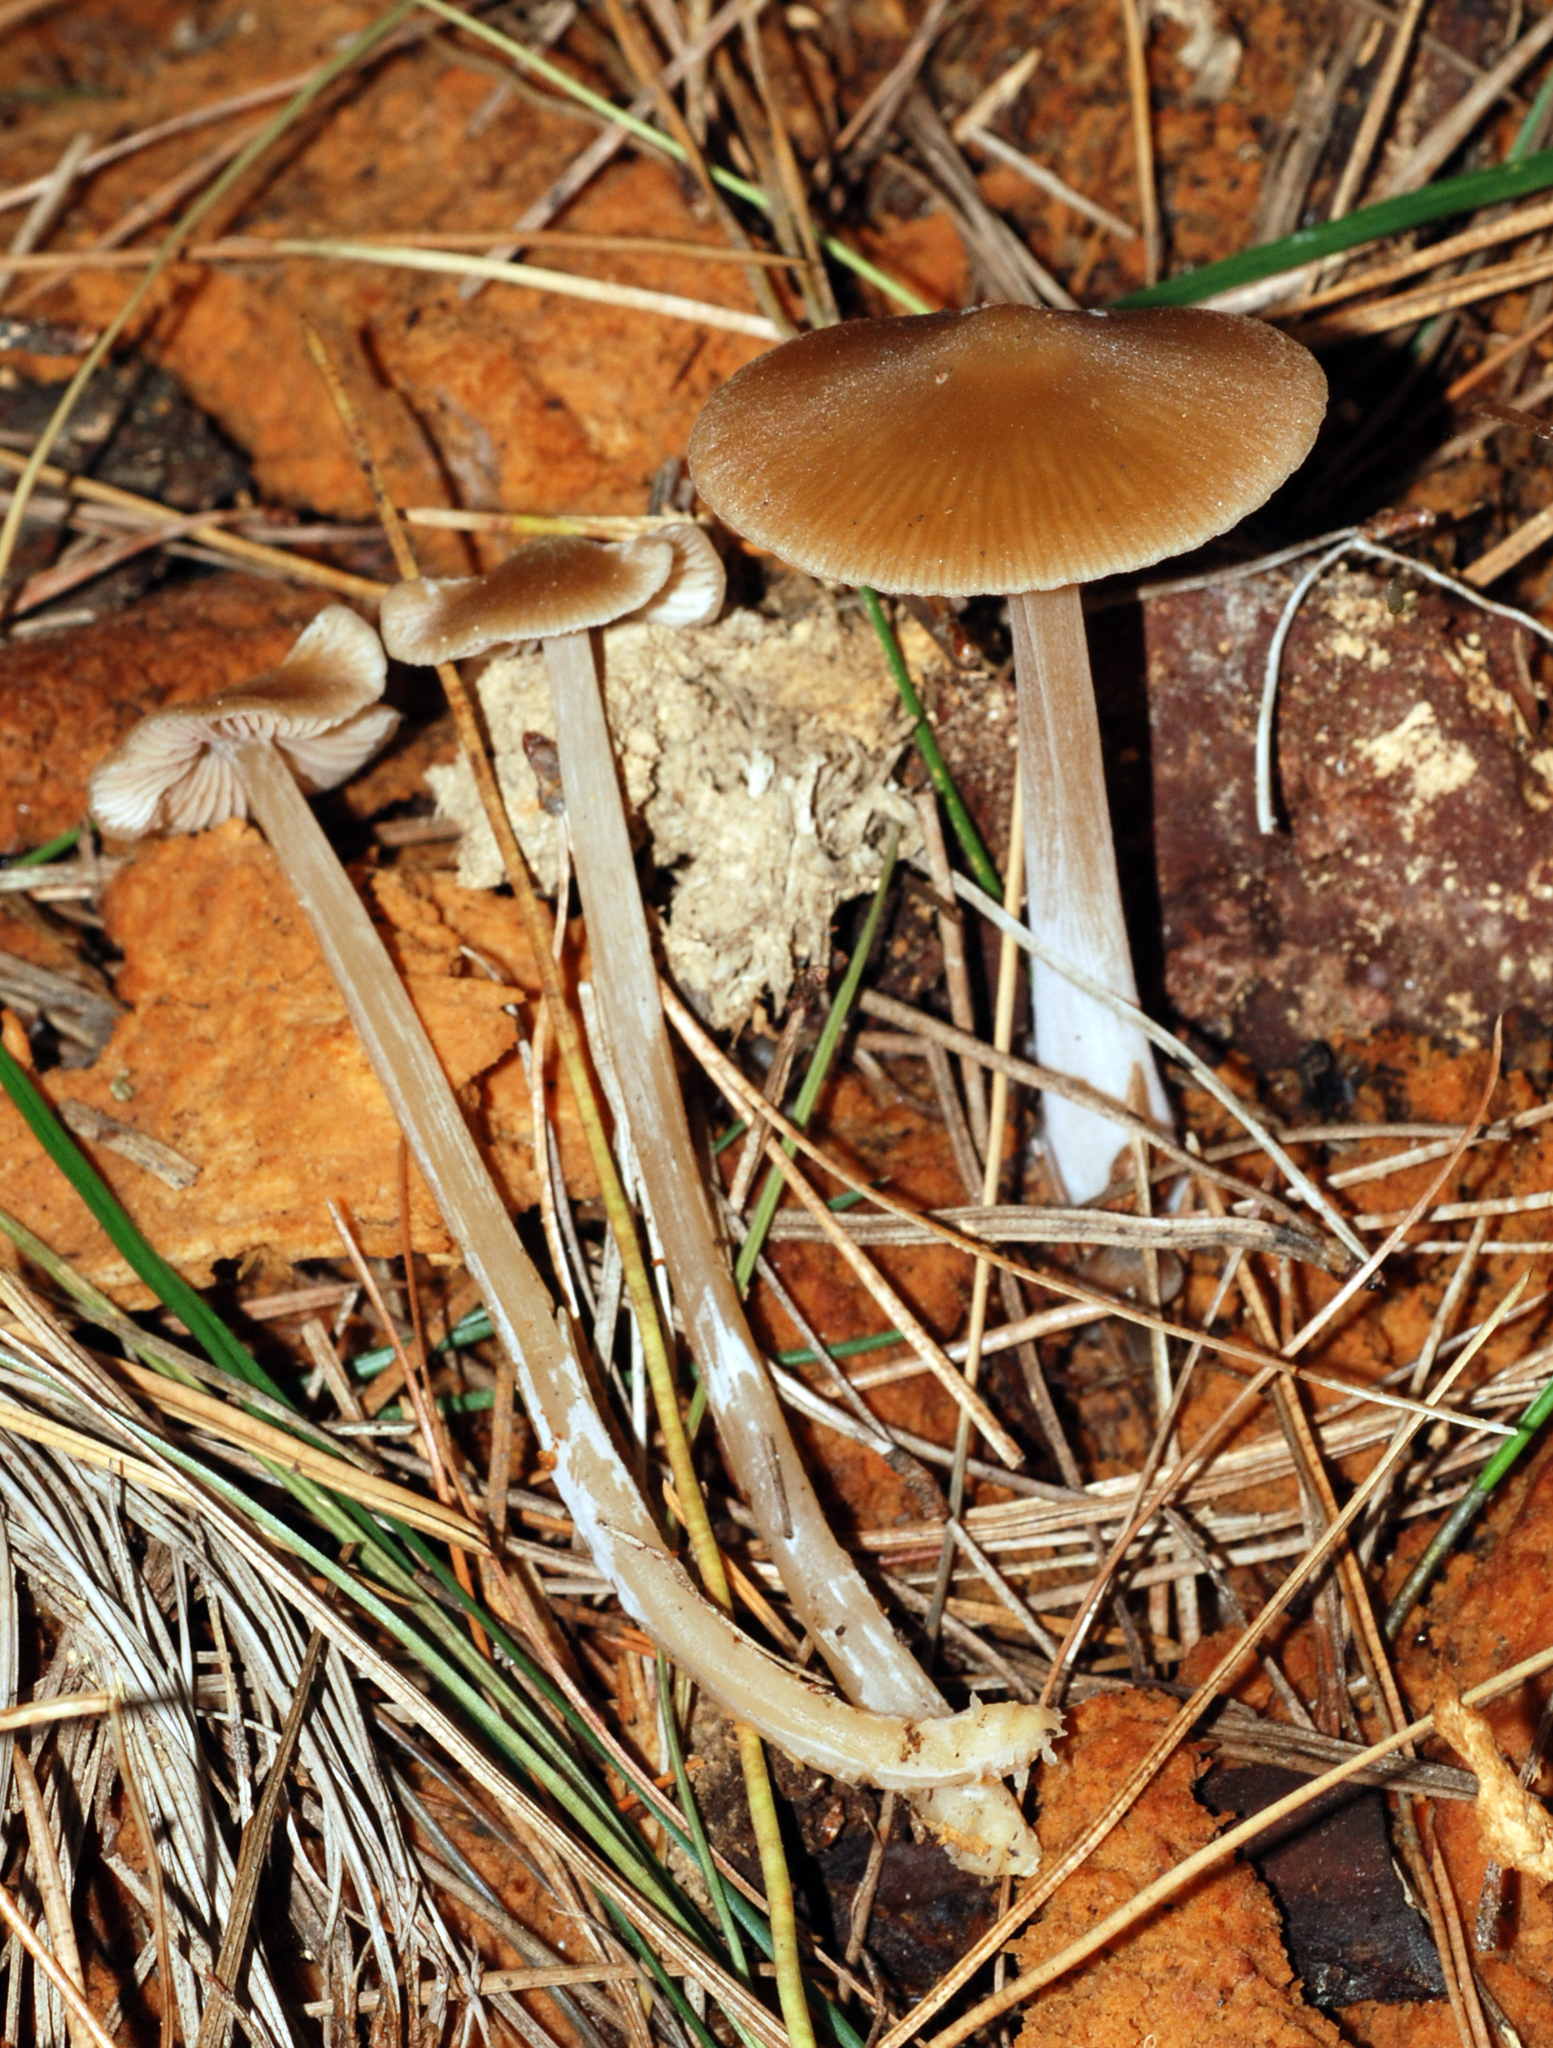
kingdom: Fungi
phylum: Basidiomycota
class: Agaricomycetes
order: Agaricales
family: Entolomataceae
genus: Entoloma
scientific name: Entoloma cuneatum
